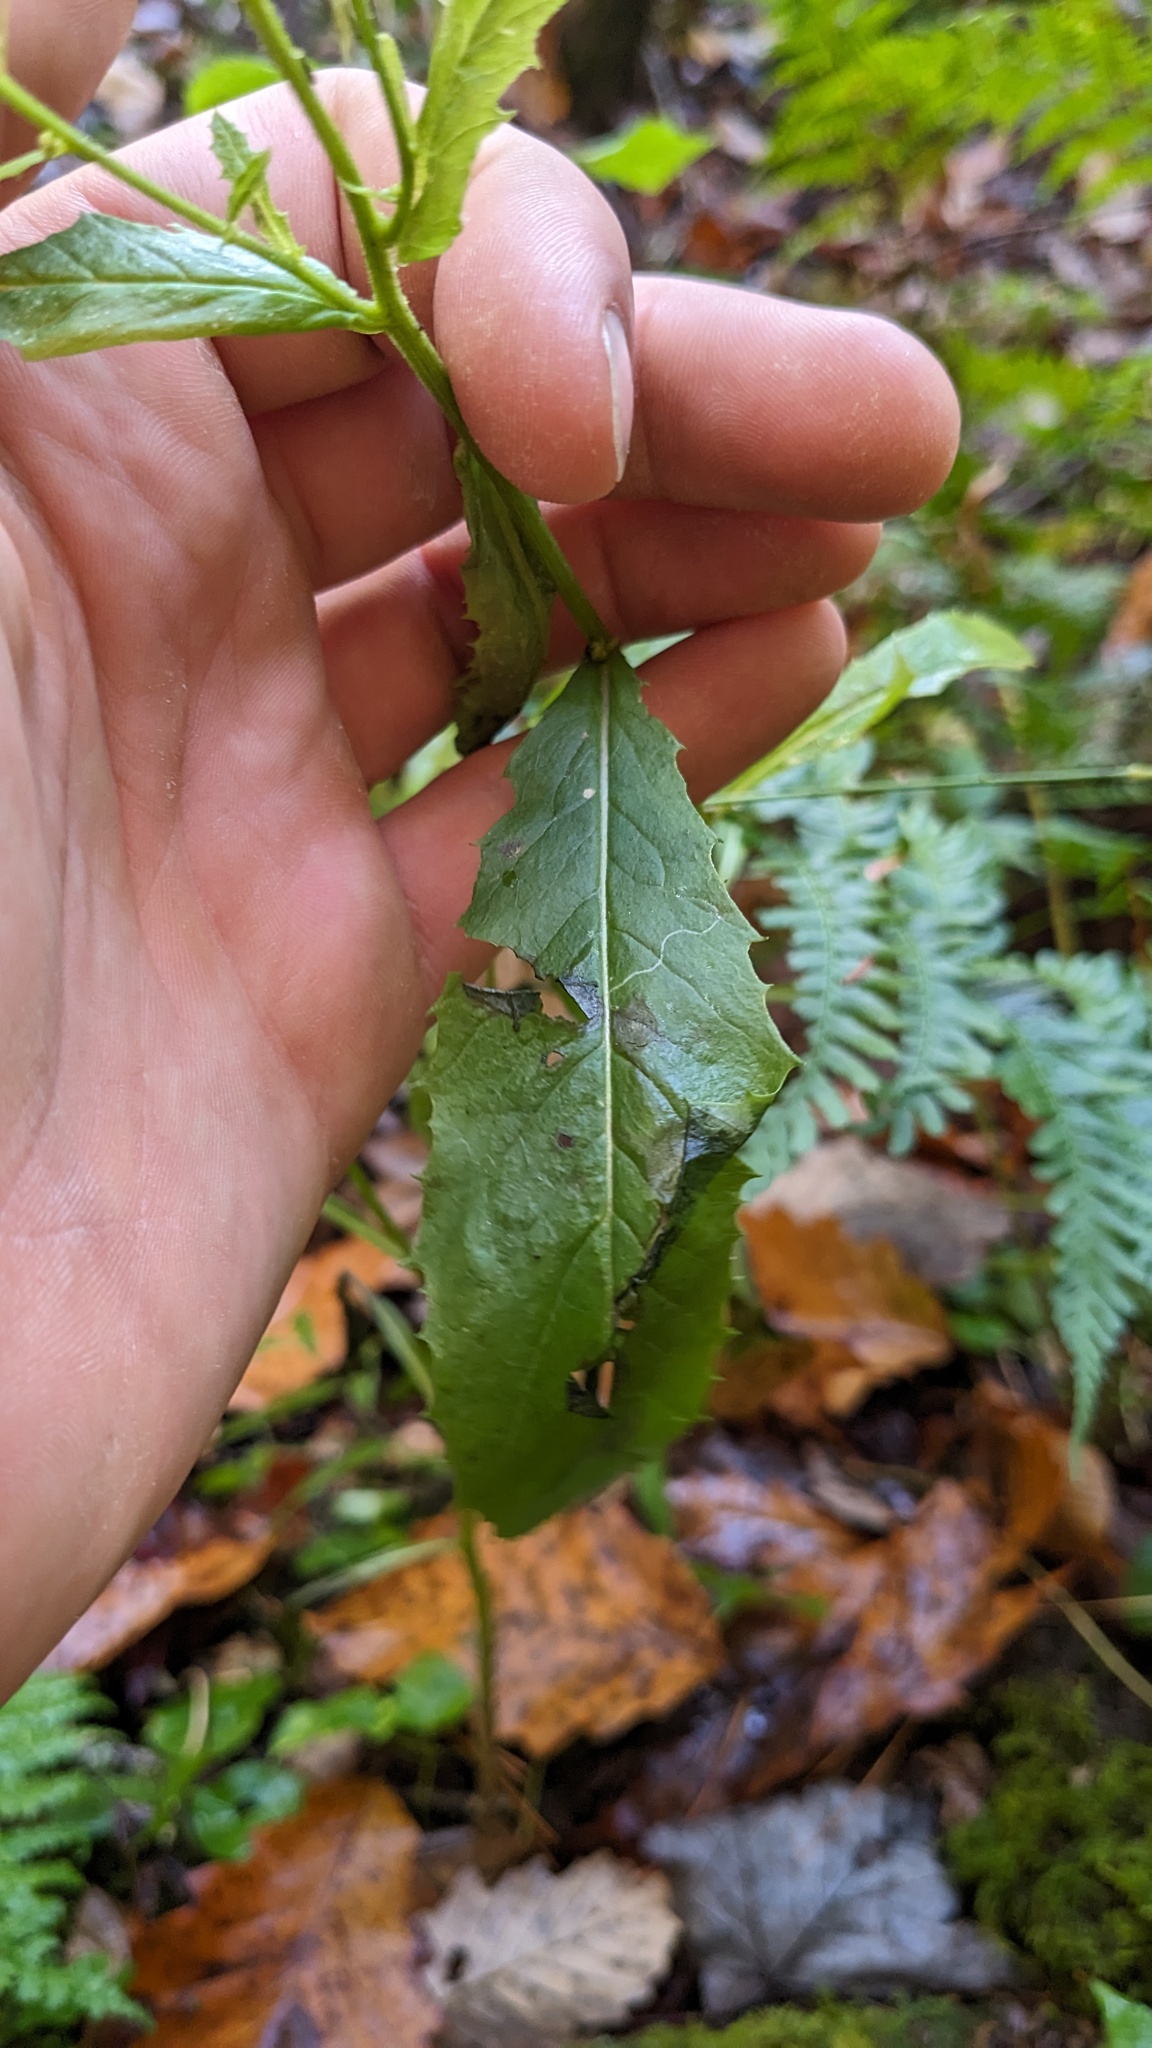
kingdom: Plantae
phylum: Tracheophyta
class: Magnoliopsida
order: Asterales
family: Asteraceae
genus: Erechtites
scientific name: Erechtites hieraciifolius
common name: American burnweed
